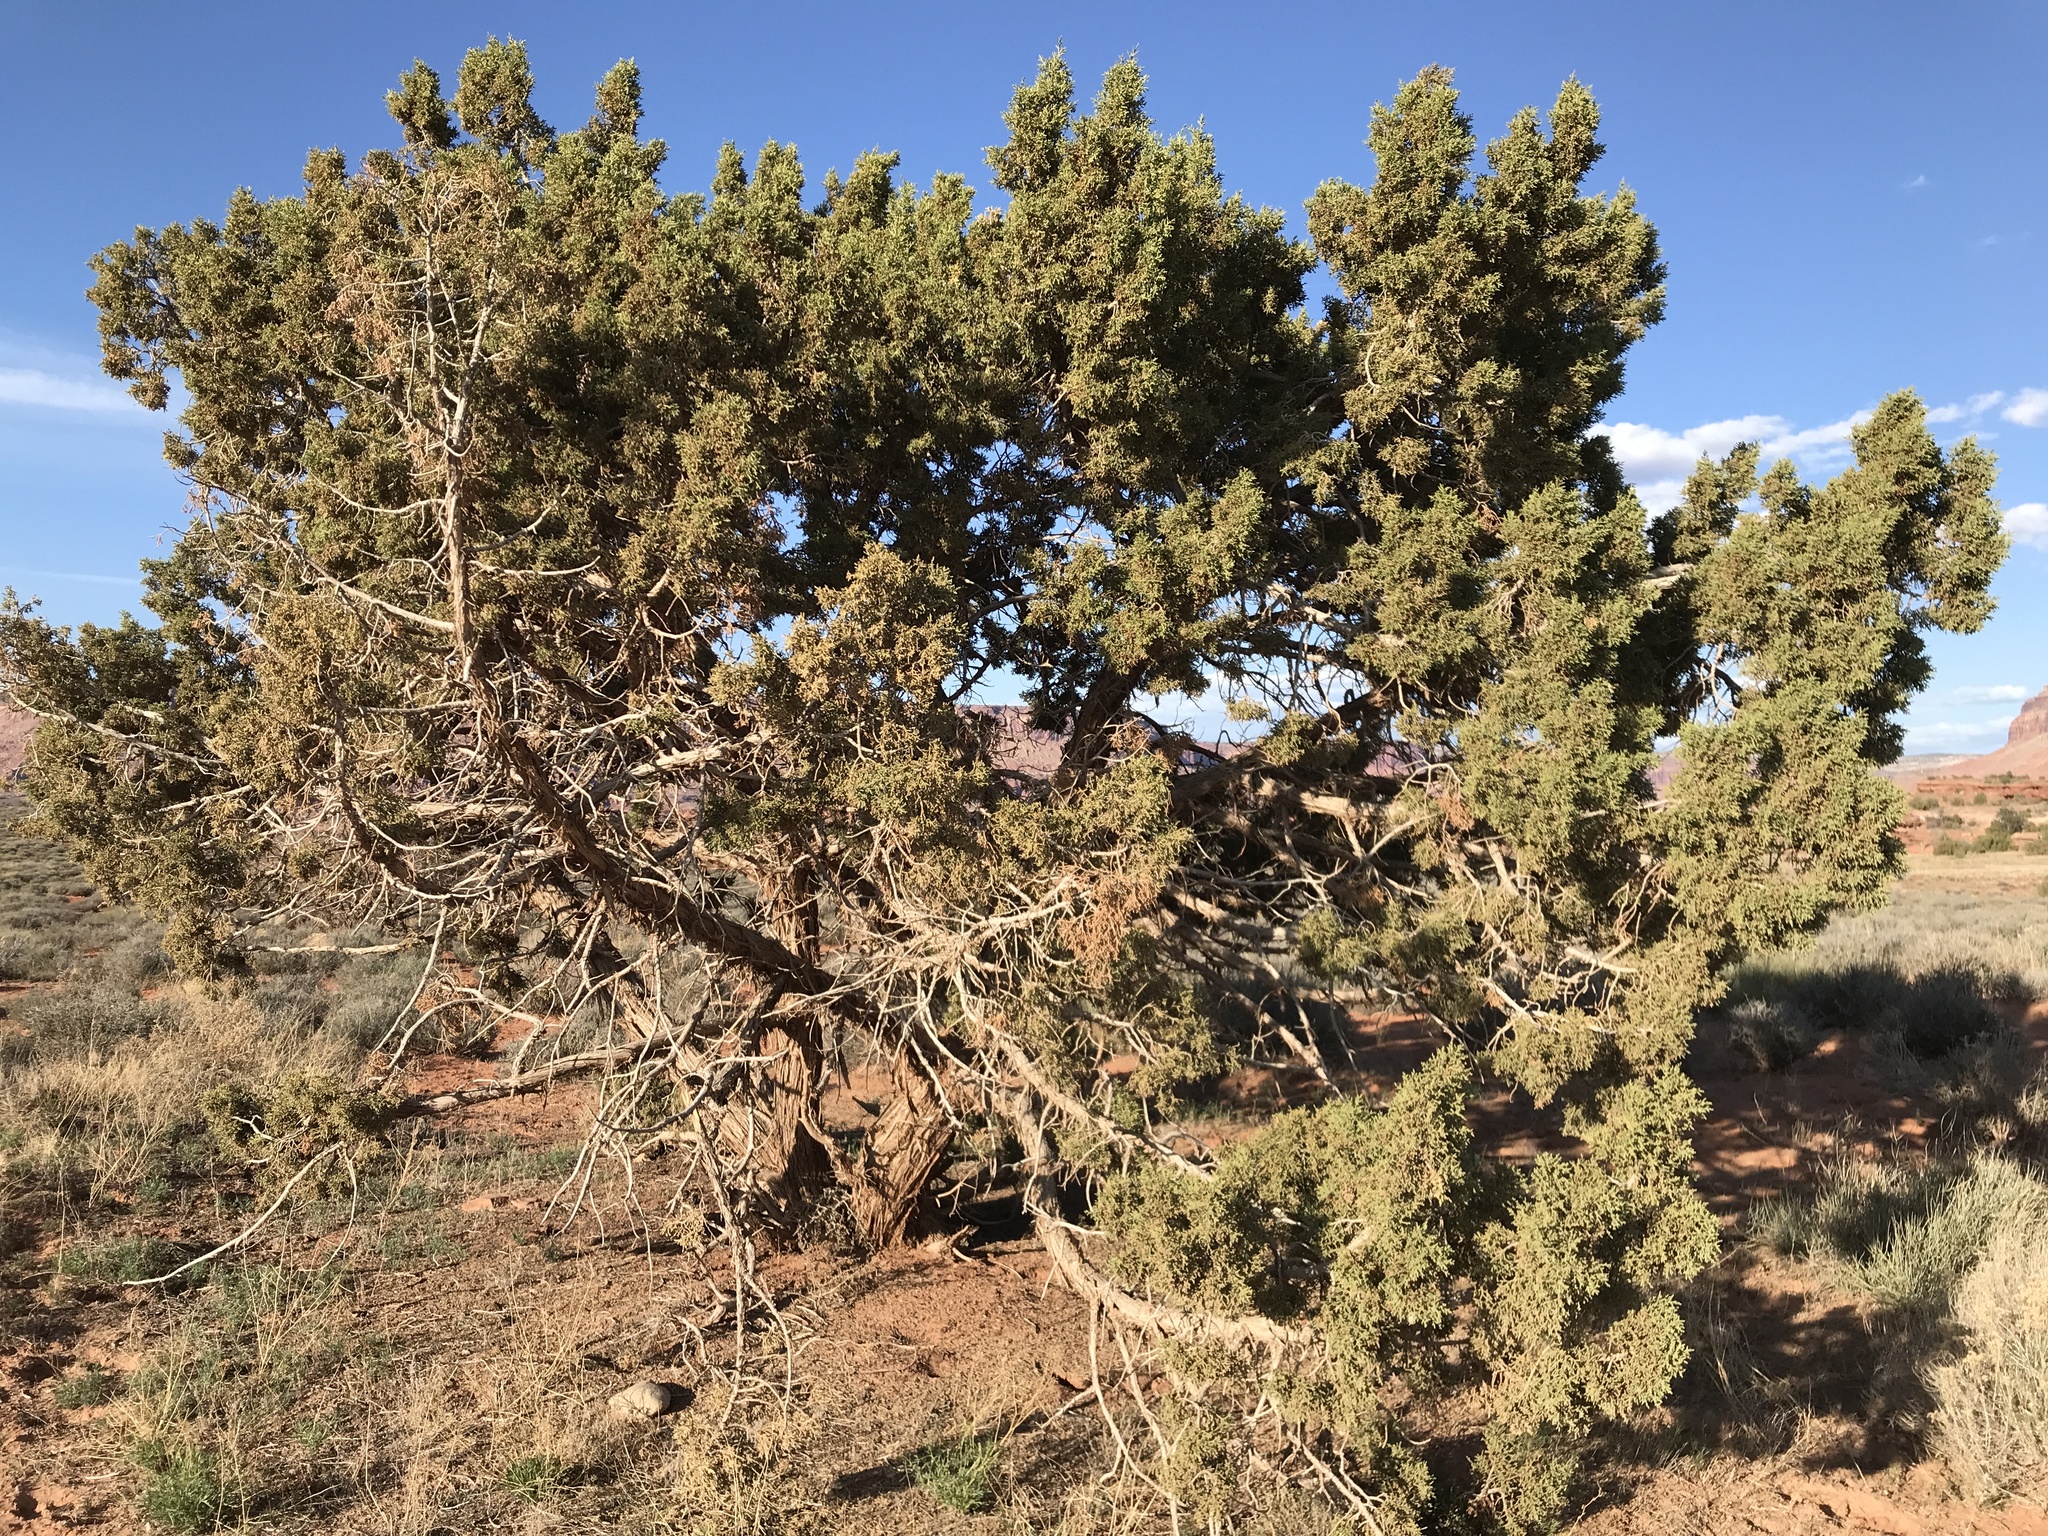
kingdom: Plantae
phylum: Tracheophyta
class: Pinopsida
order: Pinales
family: Cupressaceae
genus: Juniperus
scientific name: Juniperus osteosperma
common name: Utah juniper
